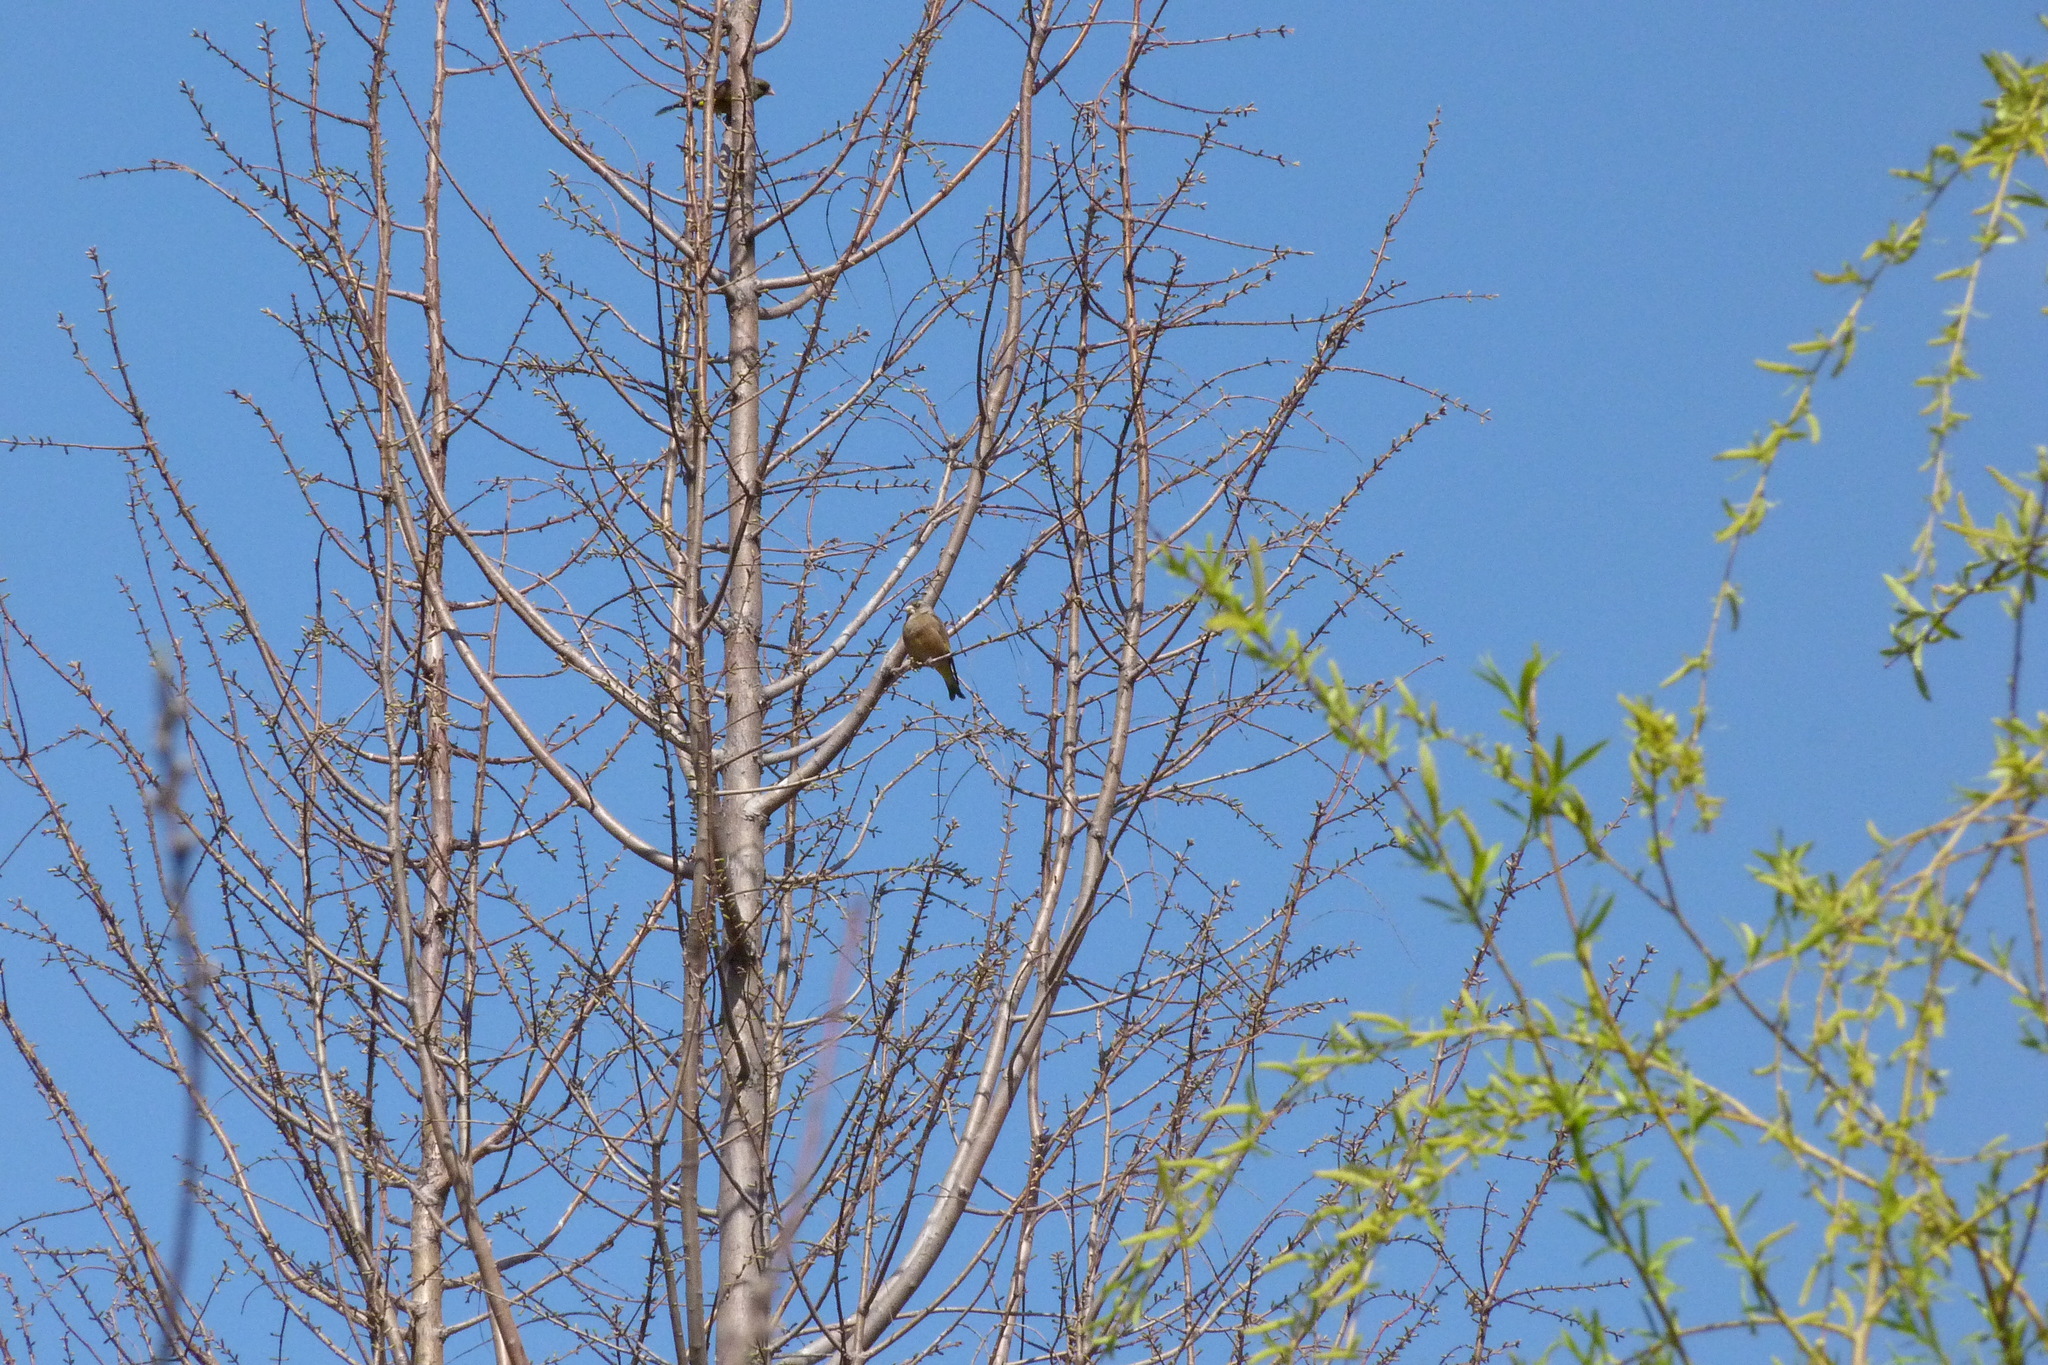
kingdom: Plantae
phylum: Tracheophyta
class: Liliopsida
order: Poales
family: Poaceae
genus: Chloris
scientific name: Chloris sinica
